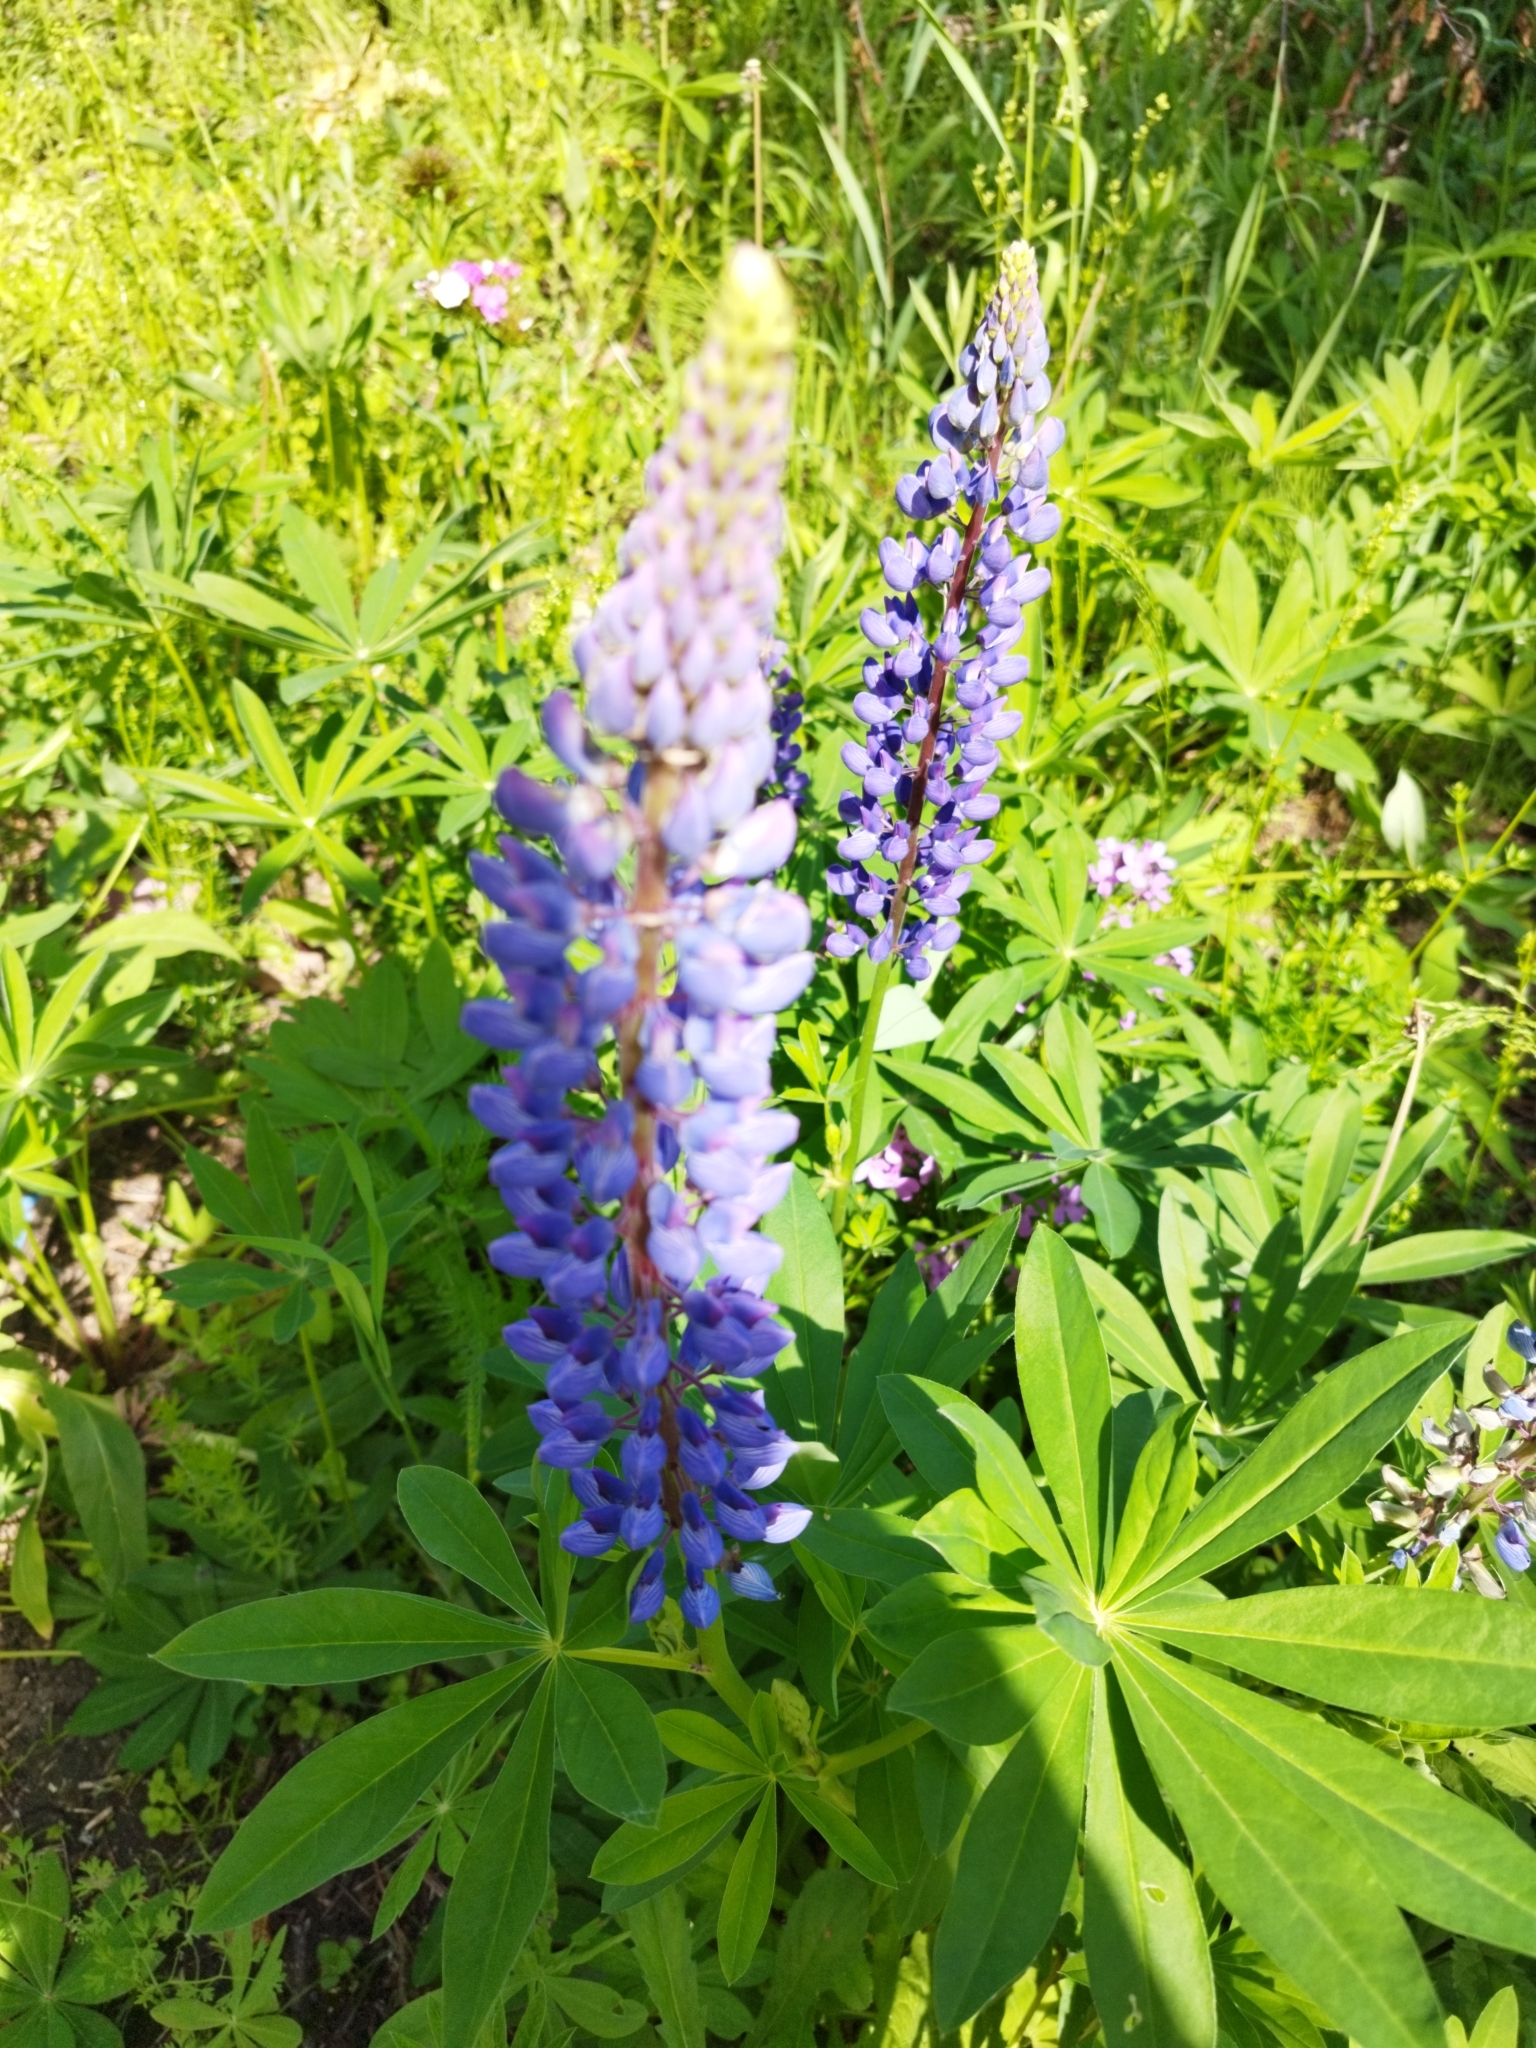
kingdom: Plantae
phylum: Tracheophyta
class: Magnoliopsida
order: Fabales
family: Fabaceae
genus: Lupinus
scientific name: Lupinus polyphyllus
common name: Garden lupin
